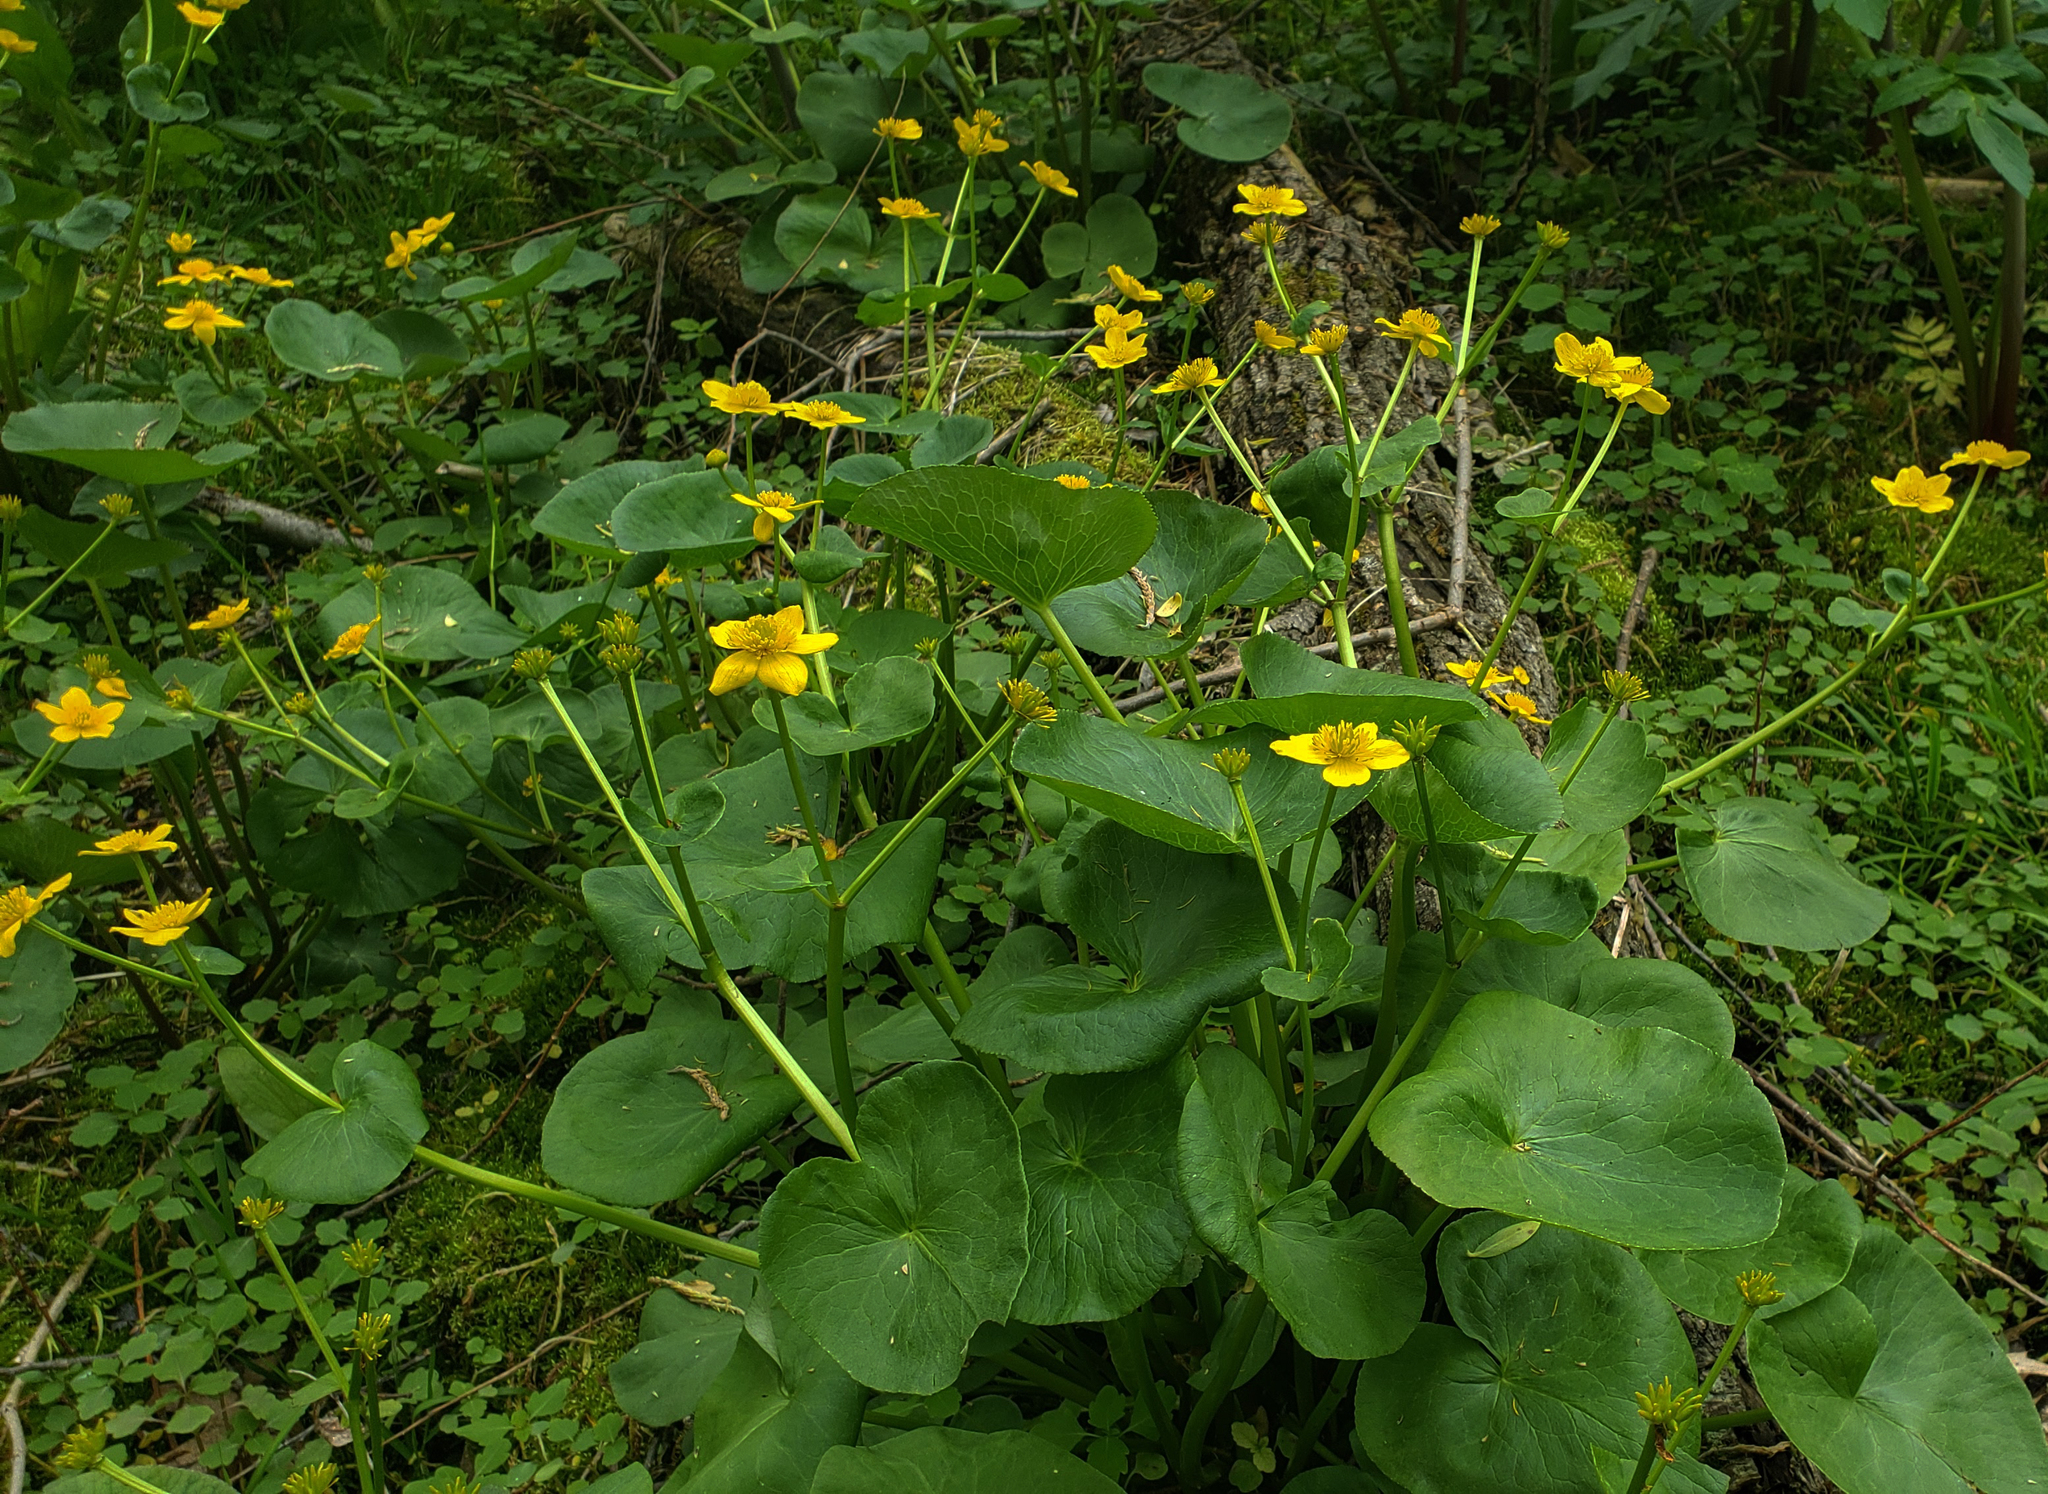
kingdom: Plantae
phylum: Tracheophyta
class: Magnoliopsida
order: Ranunculales
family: Ranunculaceae
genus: Caltha
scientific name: Caltha palustris
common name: Marsh marigold
